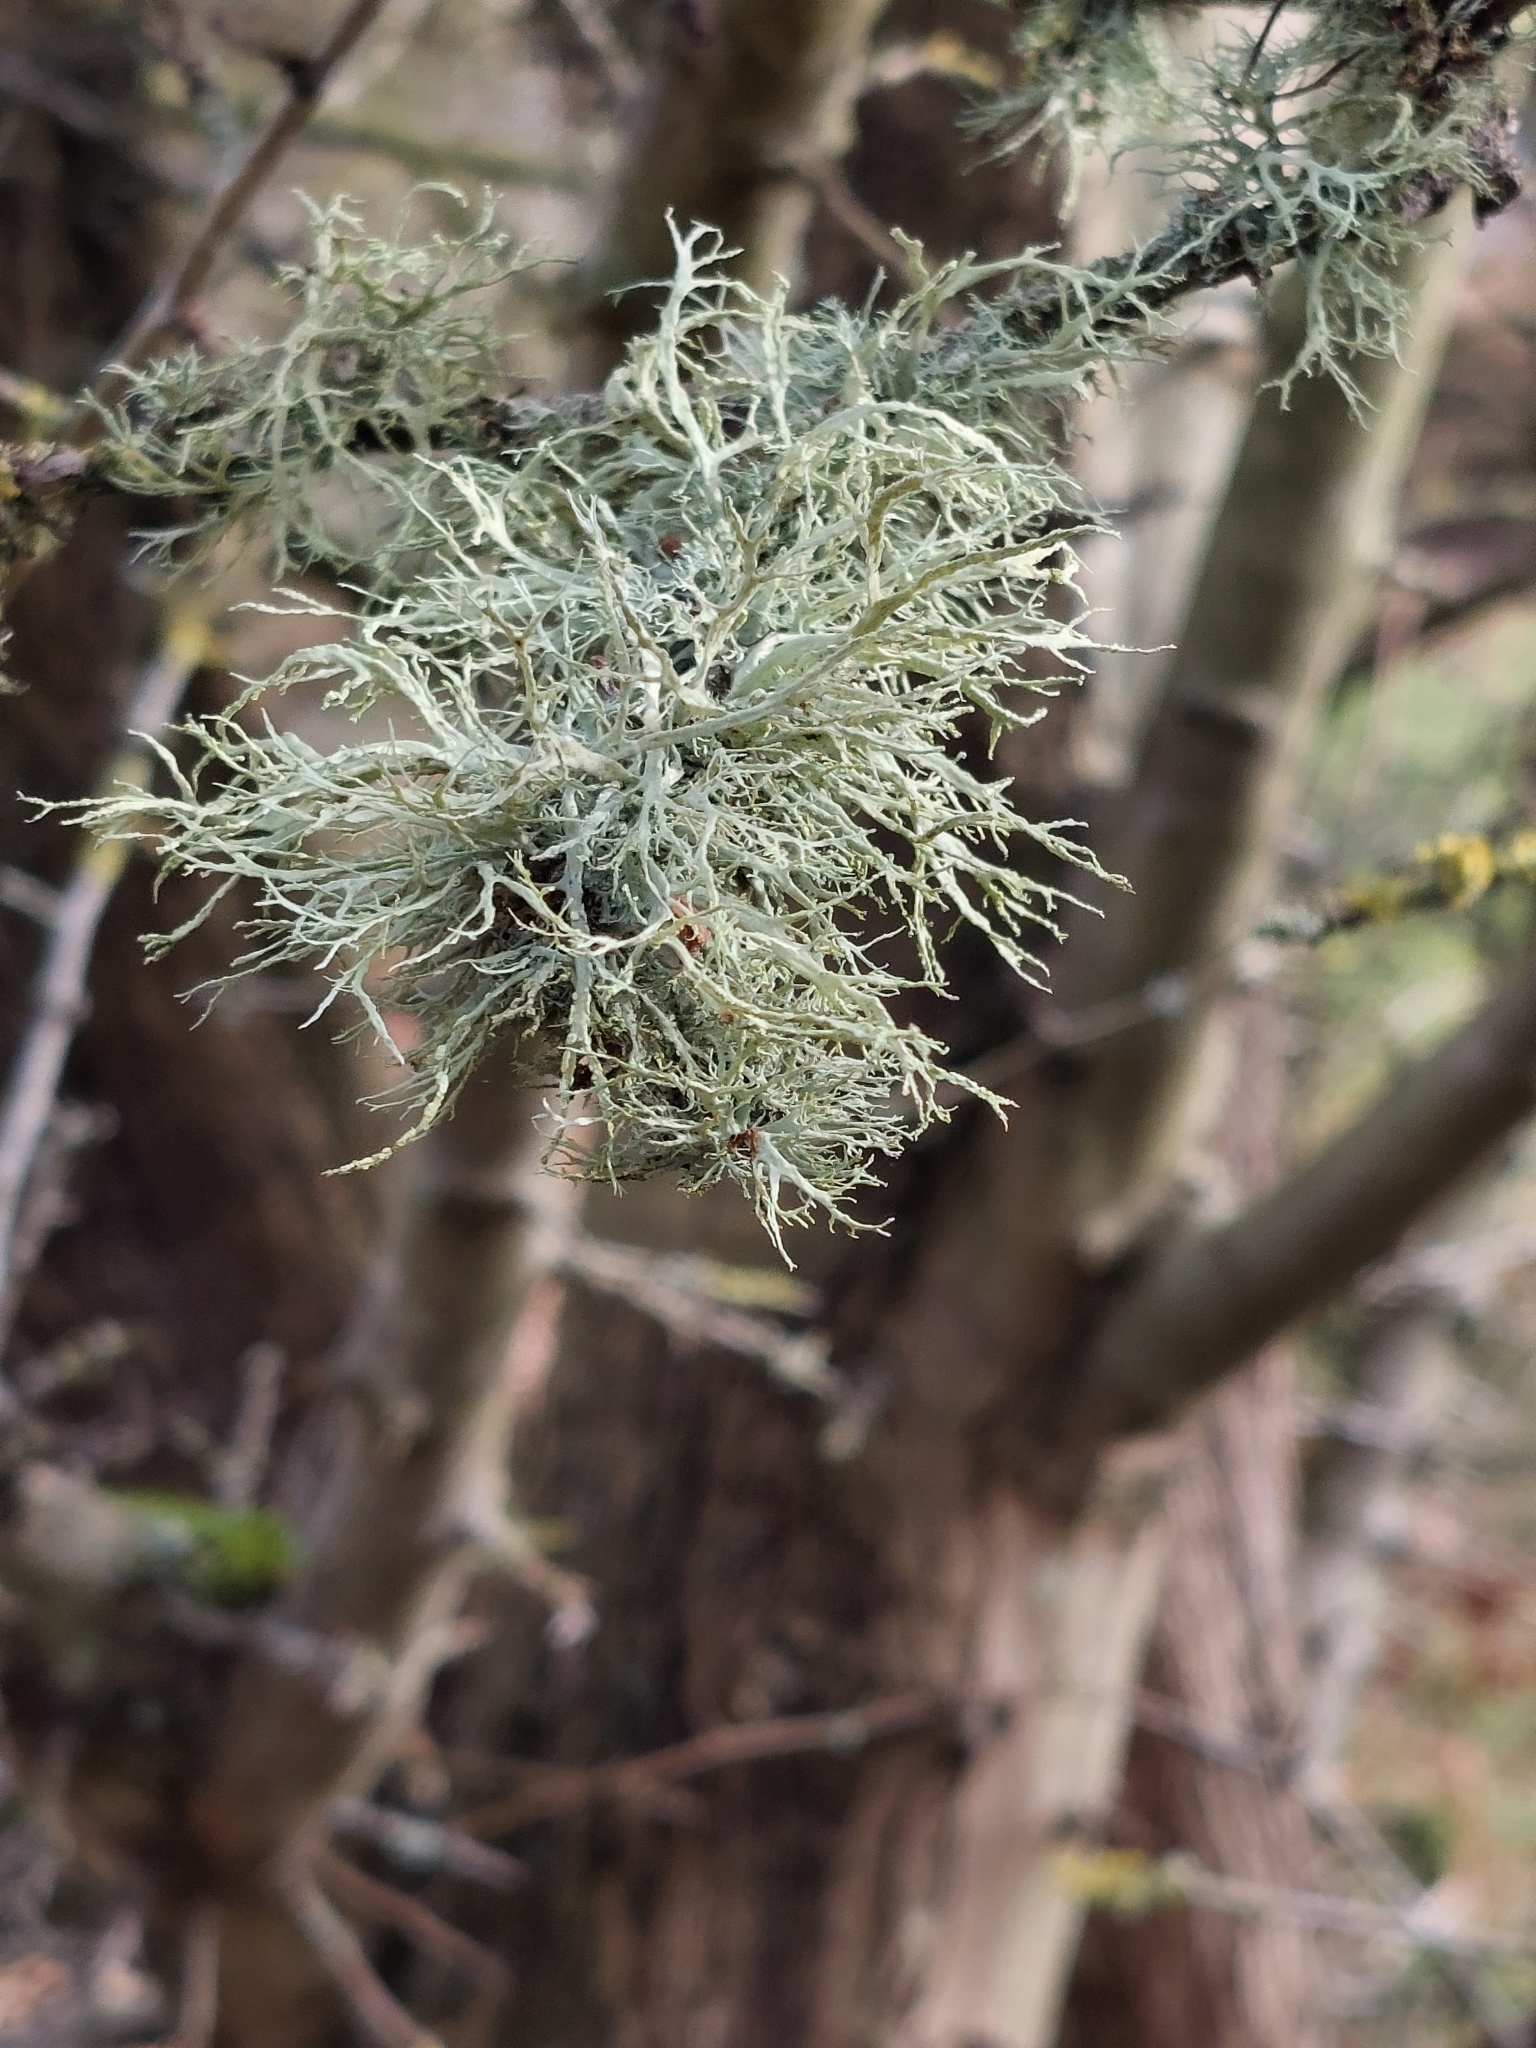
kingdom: Fungi
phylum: Ascomycota
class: Lecanoromycetes
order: Lecanorales
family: Ramalinaceae
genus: Ramalina
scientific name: Ramalina farinacea
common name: Farinose cartilage lichen
